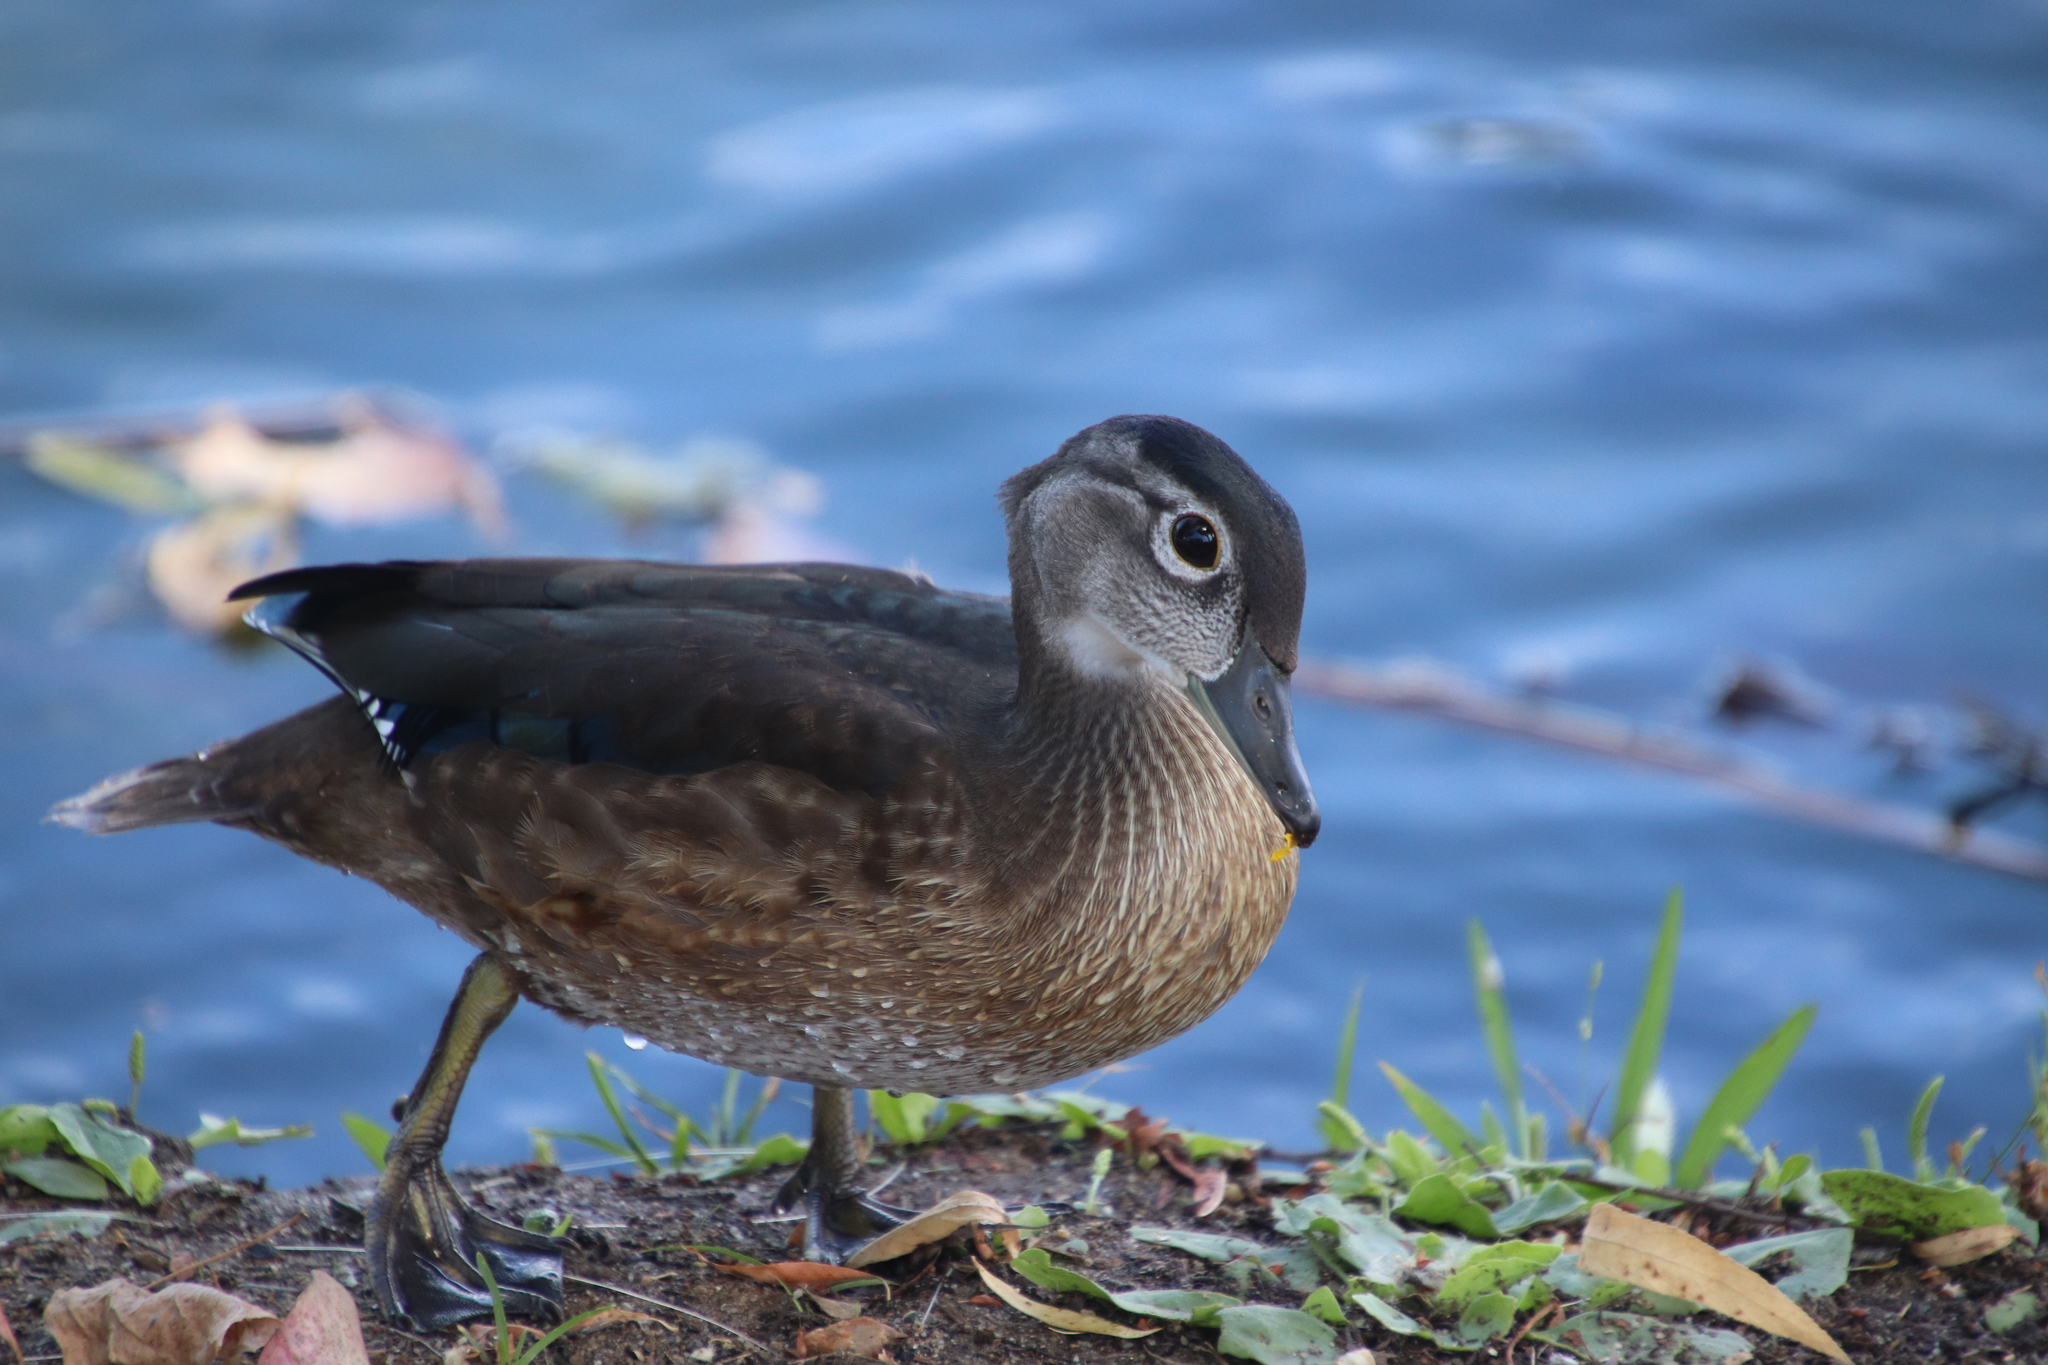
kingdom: Animalia
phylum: Chordata
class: Aves
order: Anseriformes
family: Anatidae
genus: Aix
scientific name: Aix sponsa
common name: Wood duck
